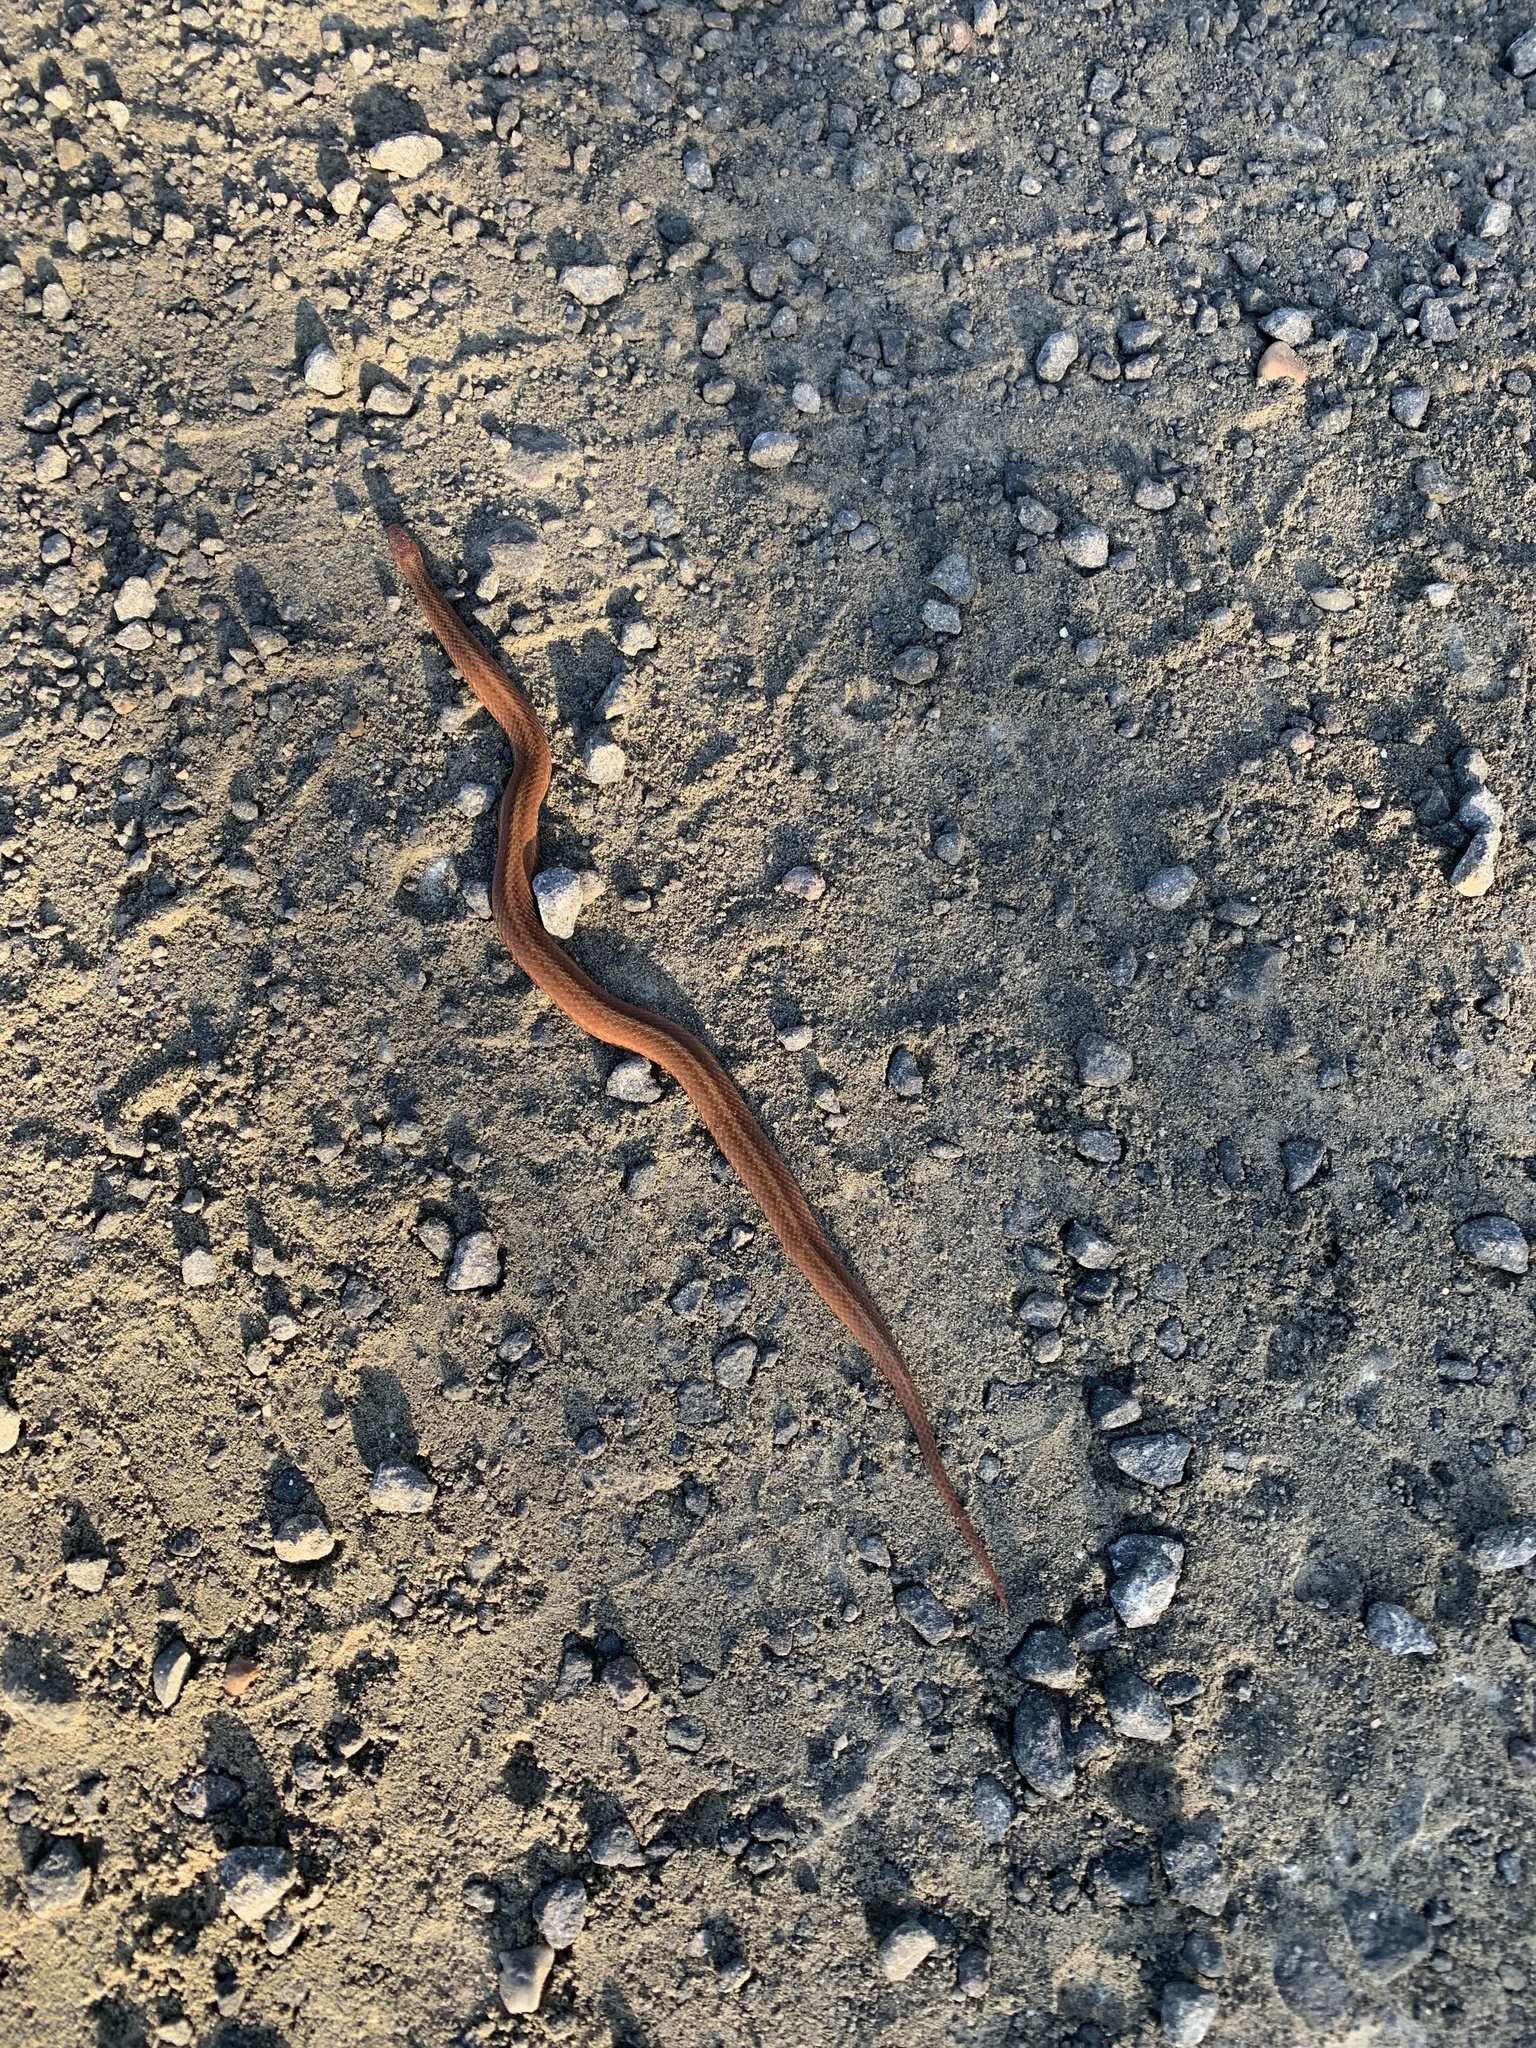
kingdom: Animalia
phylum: Chordata
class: Squamata
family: Colubridae
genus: Storeria
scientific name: Storeria occipitomaculata
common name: Redbelly snake
